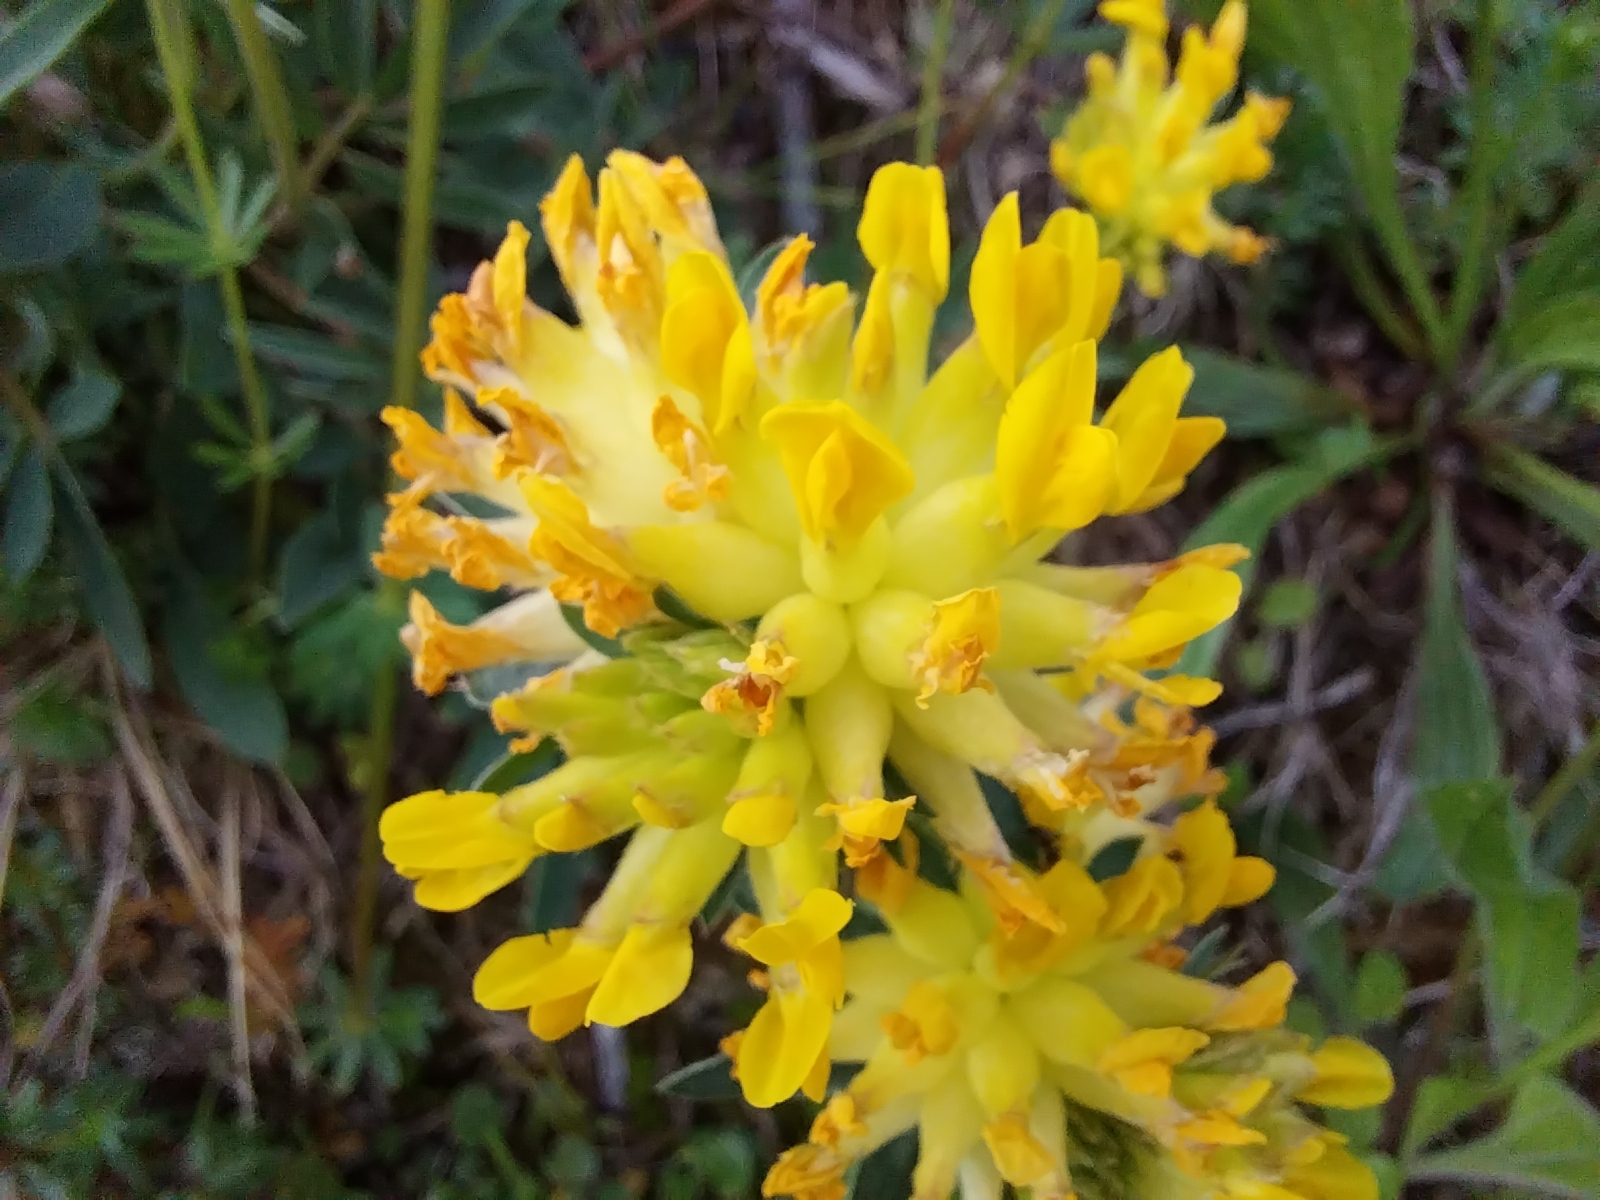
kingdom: Plantae
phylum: Tracheophyta
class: Magnoliopsida
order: Fabales
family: Fabaceae
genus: Anthyllis
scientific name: Anthyllis vulneraria
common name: Kidney vetch
